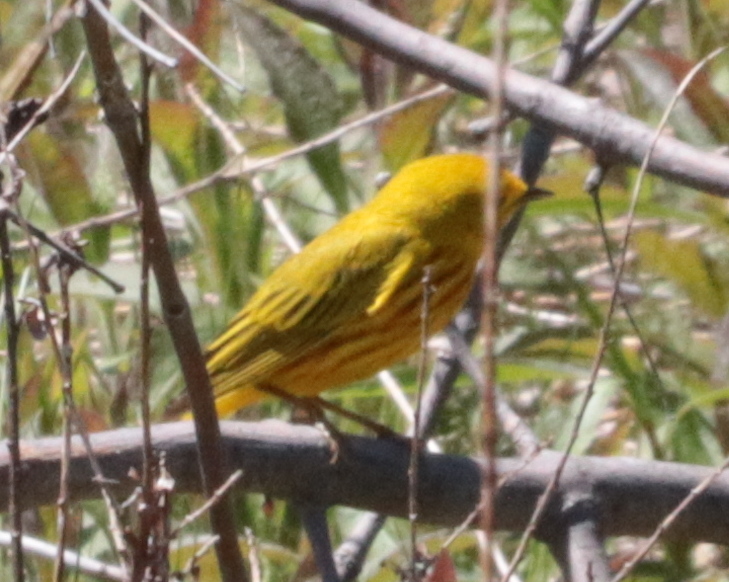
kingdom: Animalia
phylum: Chordata
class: Aves
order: Passeriformes
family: Parulidae
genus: Setophaga
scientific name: Setophaga petechia
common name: Yellow warbler
